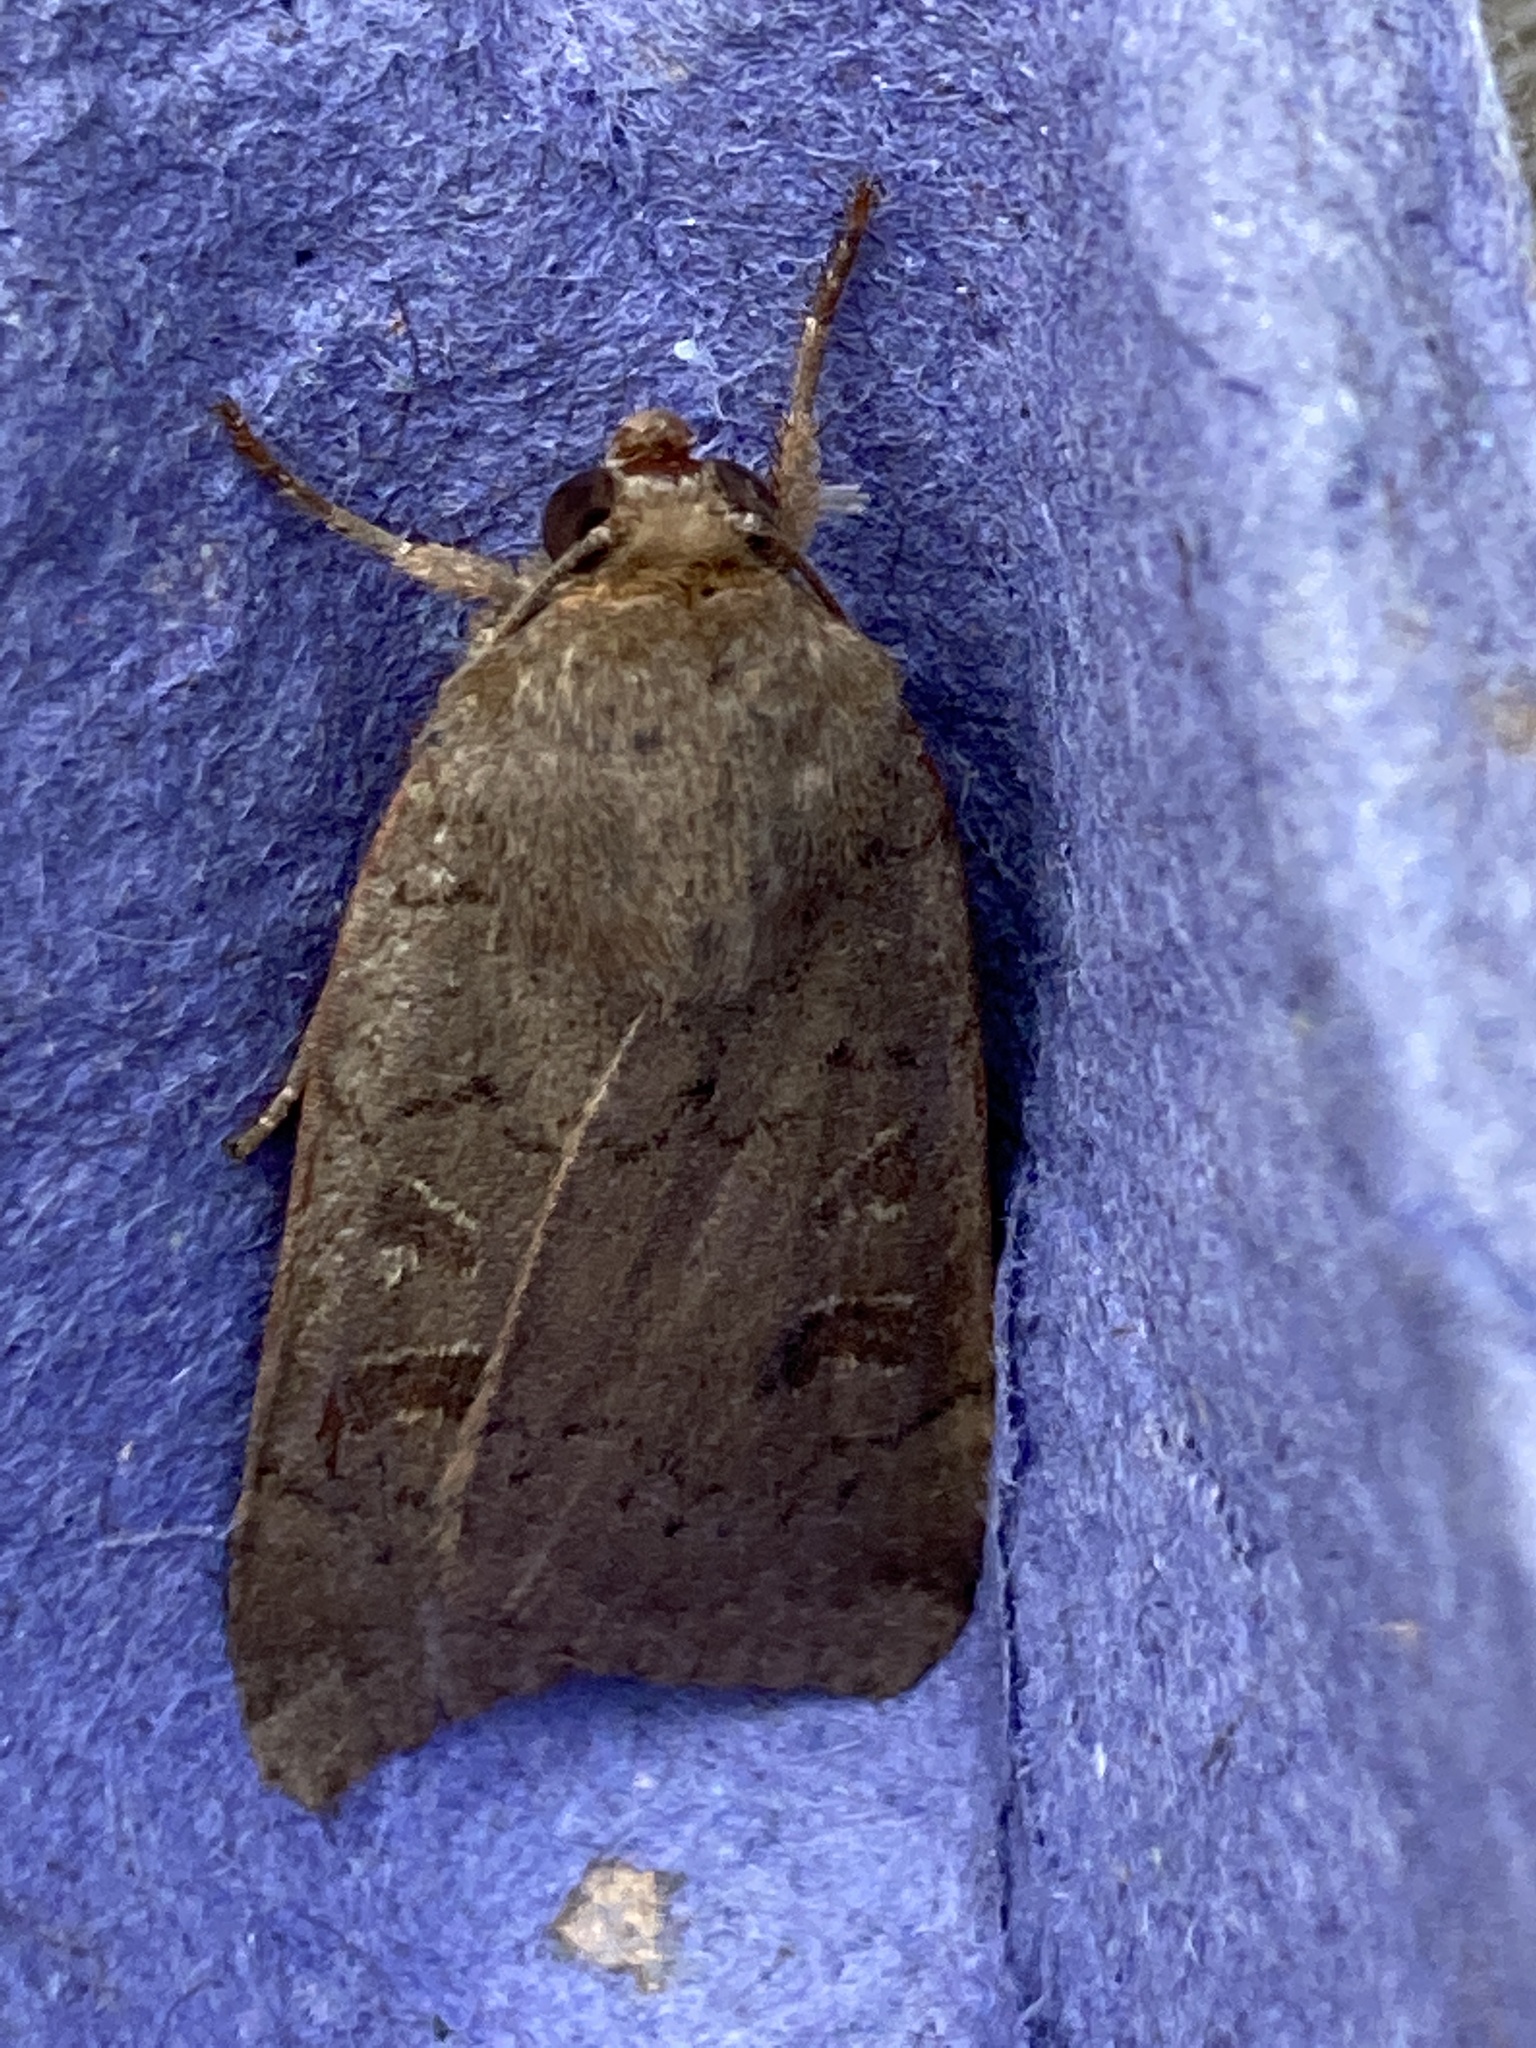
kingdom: Animalia
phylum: Arthropoda
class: Insecta
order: Lepidoptera
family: Noctuidae
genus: Noctua
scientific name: Noctua comes
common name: Lesser yellow underwing
